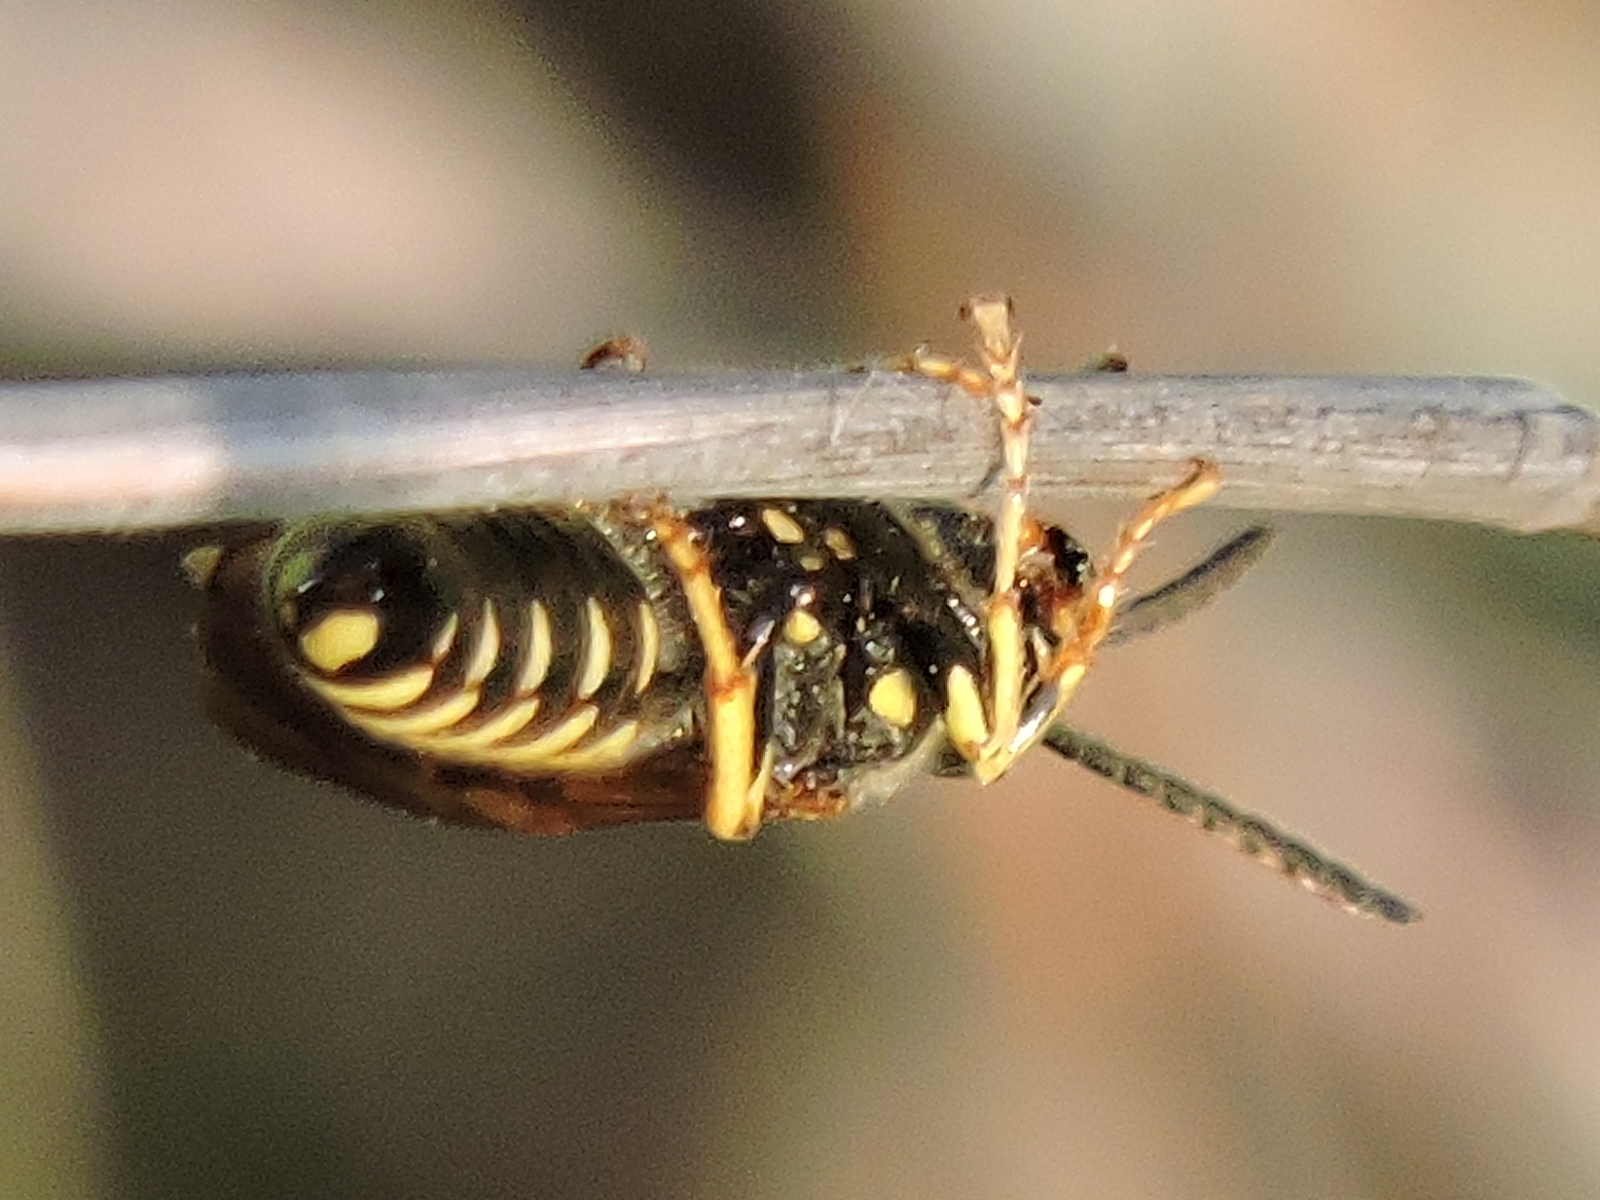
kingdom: Animalia
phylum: Arthropoda
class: Insecta
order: Hymenoptera
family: Tiphiidae
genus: Myzinum
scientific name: Myzinum quinquecinctum
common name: Five-banded thynnid wasp
